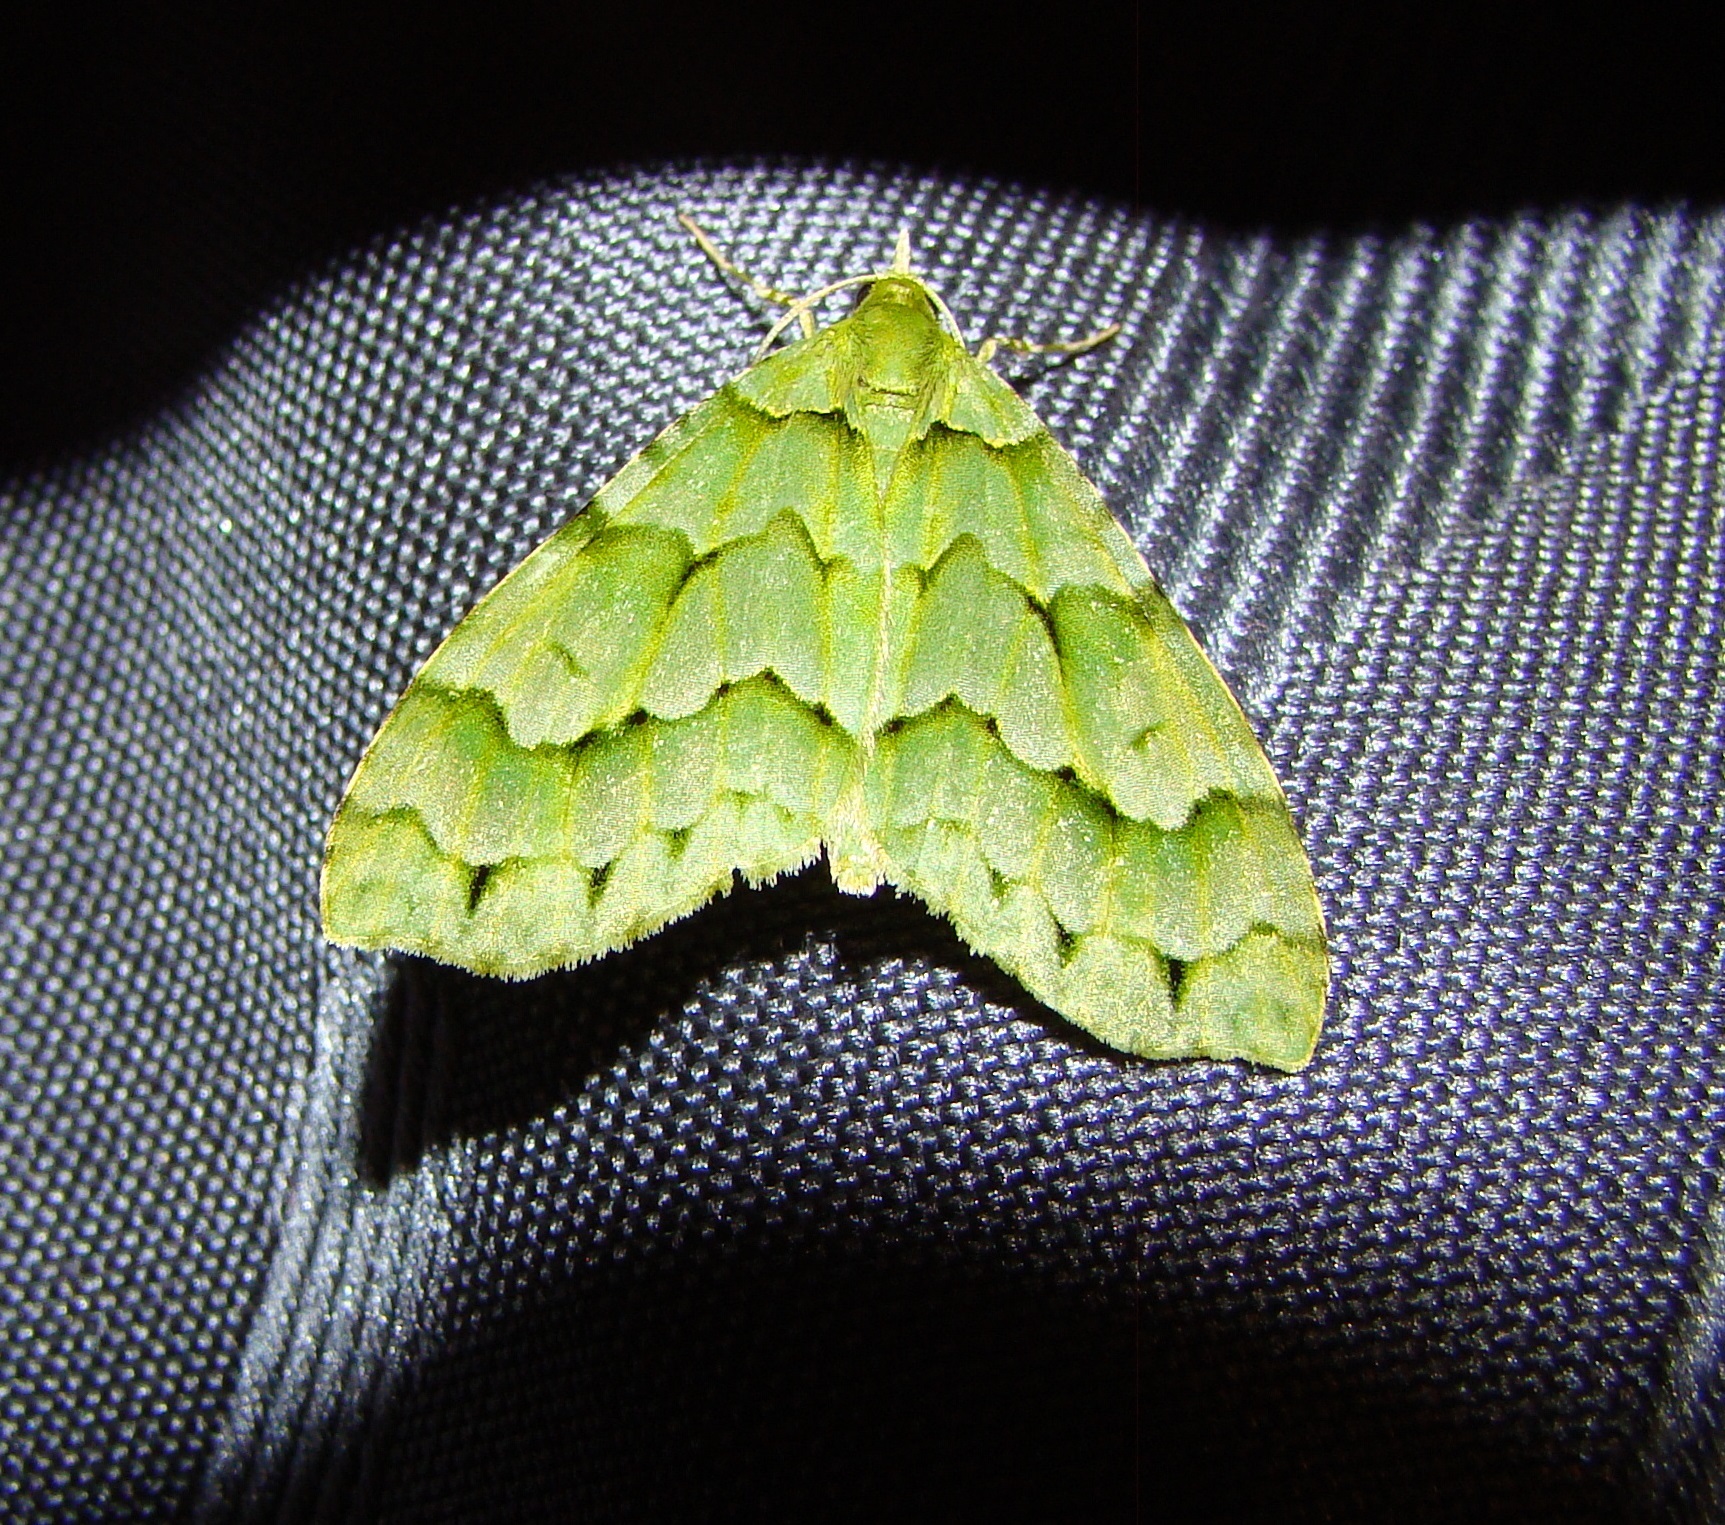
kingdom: Animalia
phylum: Arthropoda
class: Insecta
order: Lepidoptera
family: Geometridae
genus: Tatosoma
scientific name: Tatosoma lestevata
